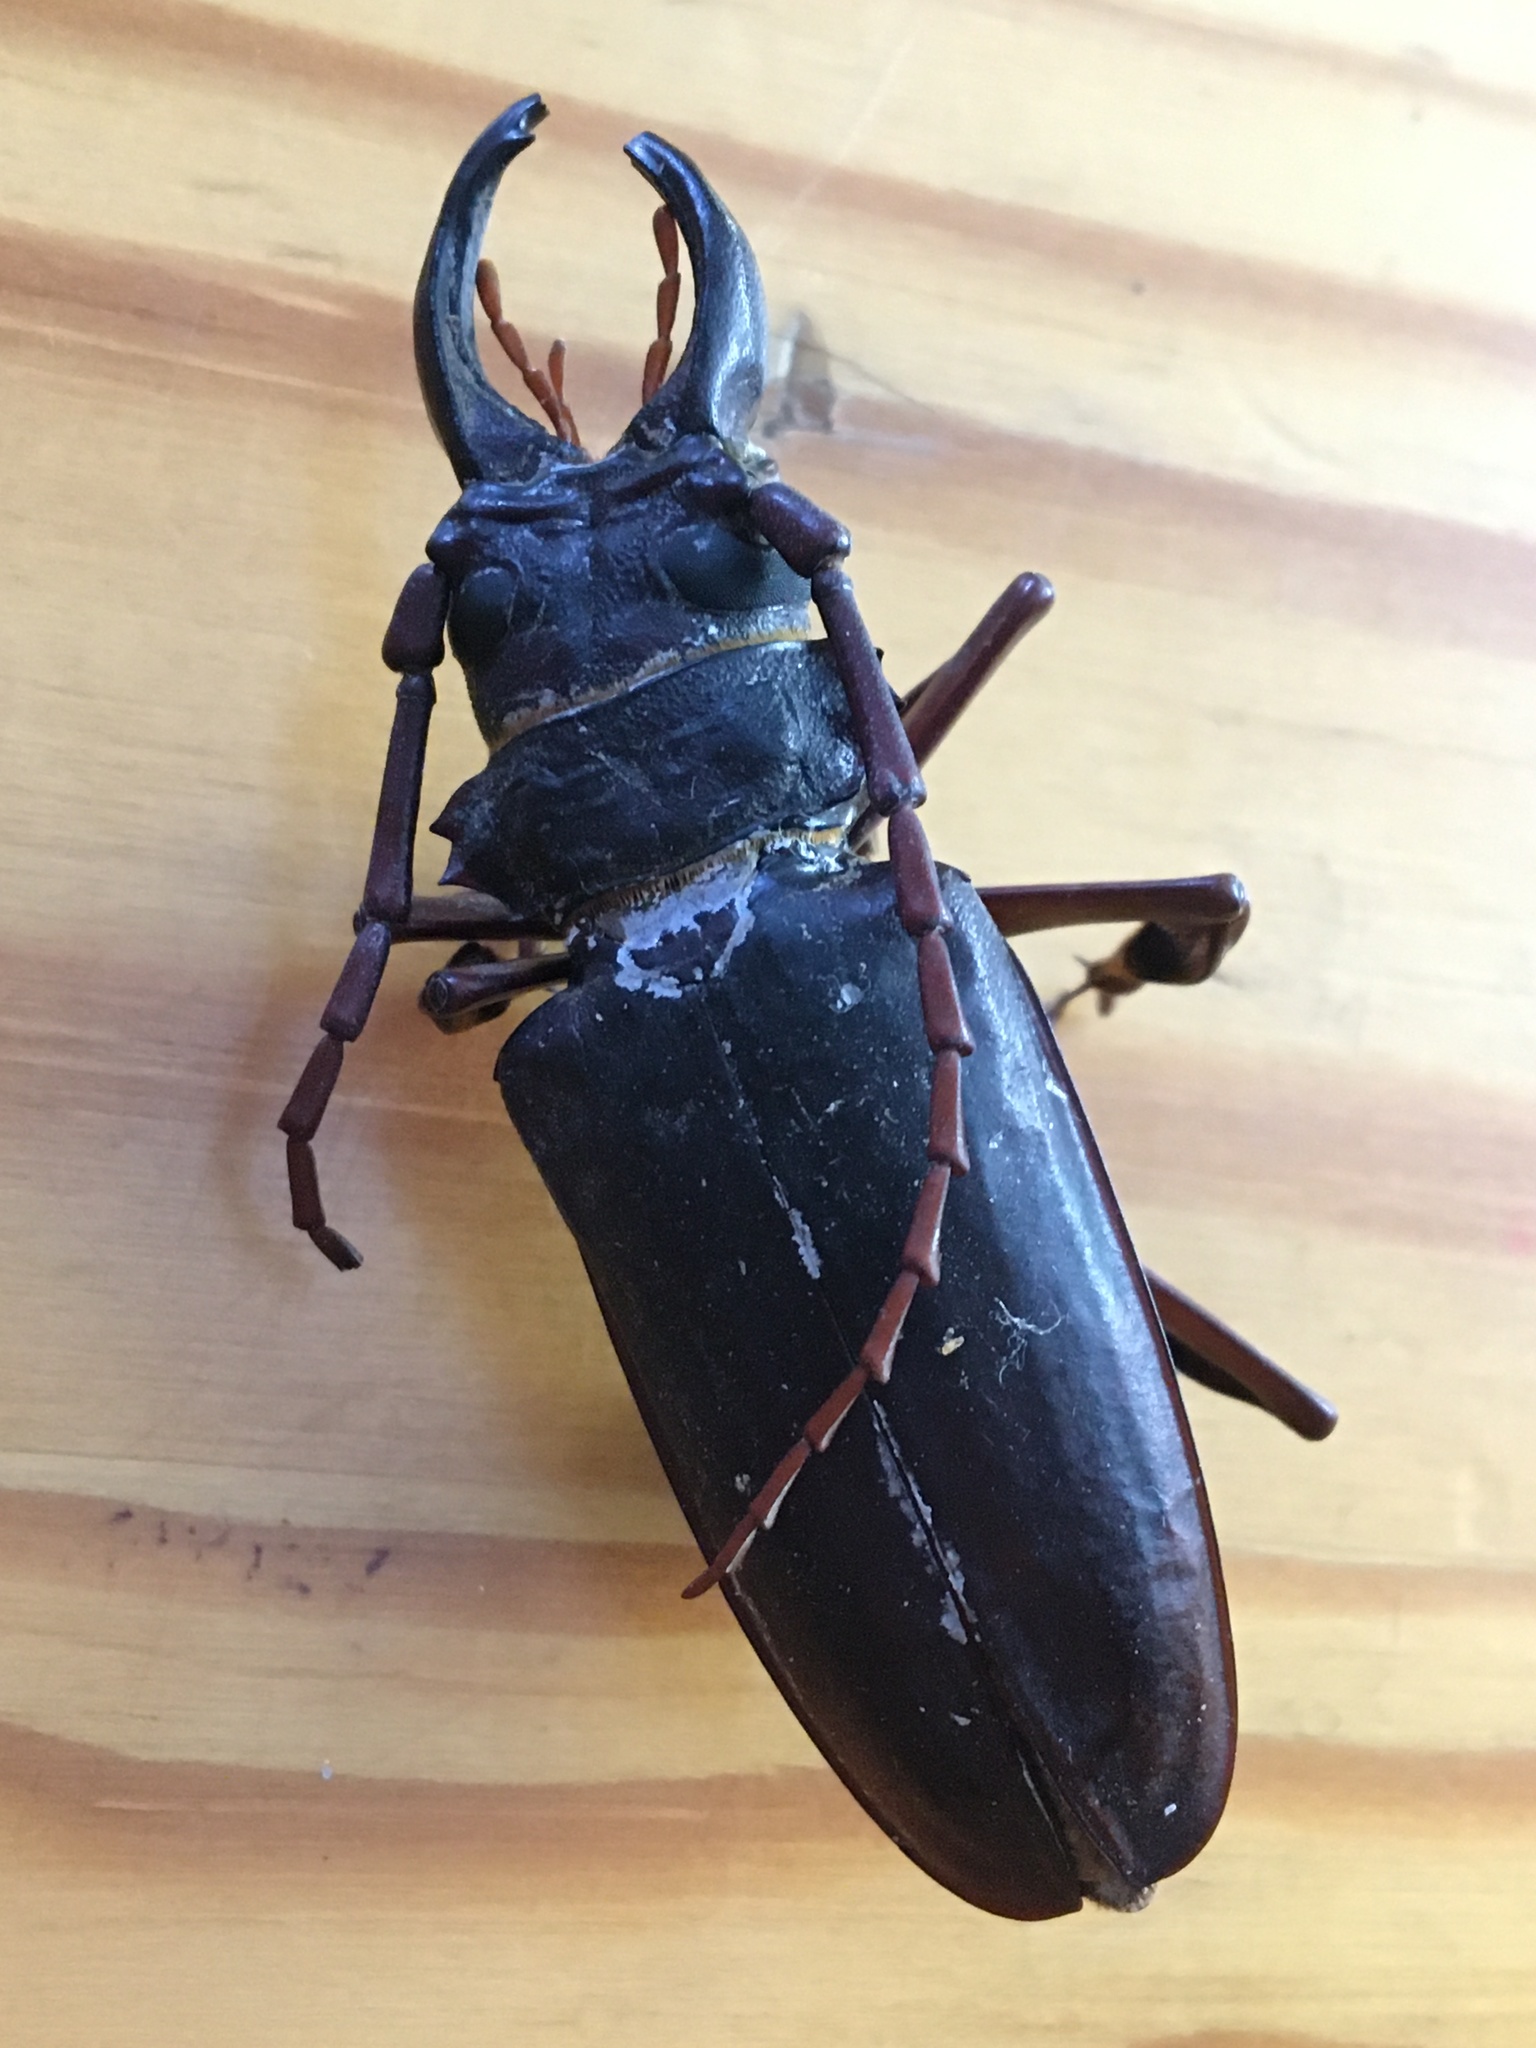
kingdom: Animalia
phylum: Arthropoda
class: Insecta
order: Coleoptera
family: Cerambycidae
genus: Cacosceles
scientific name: Cacosceles oedipus
